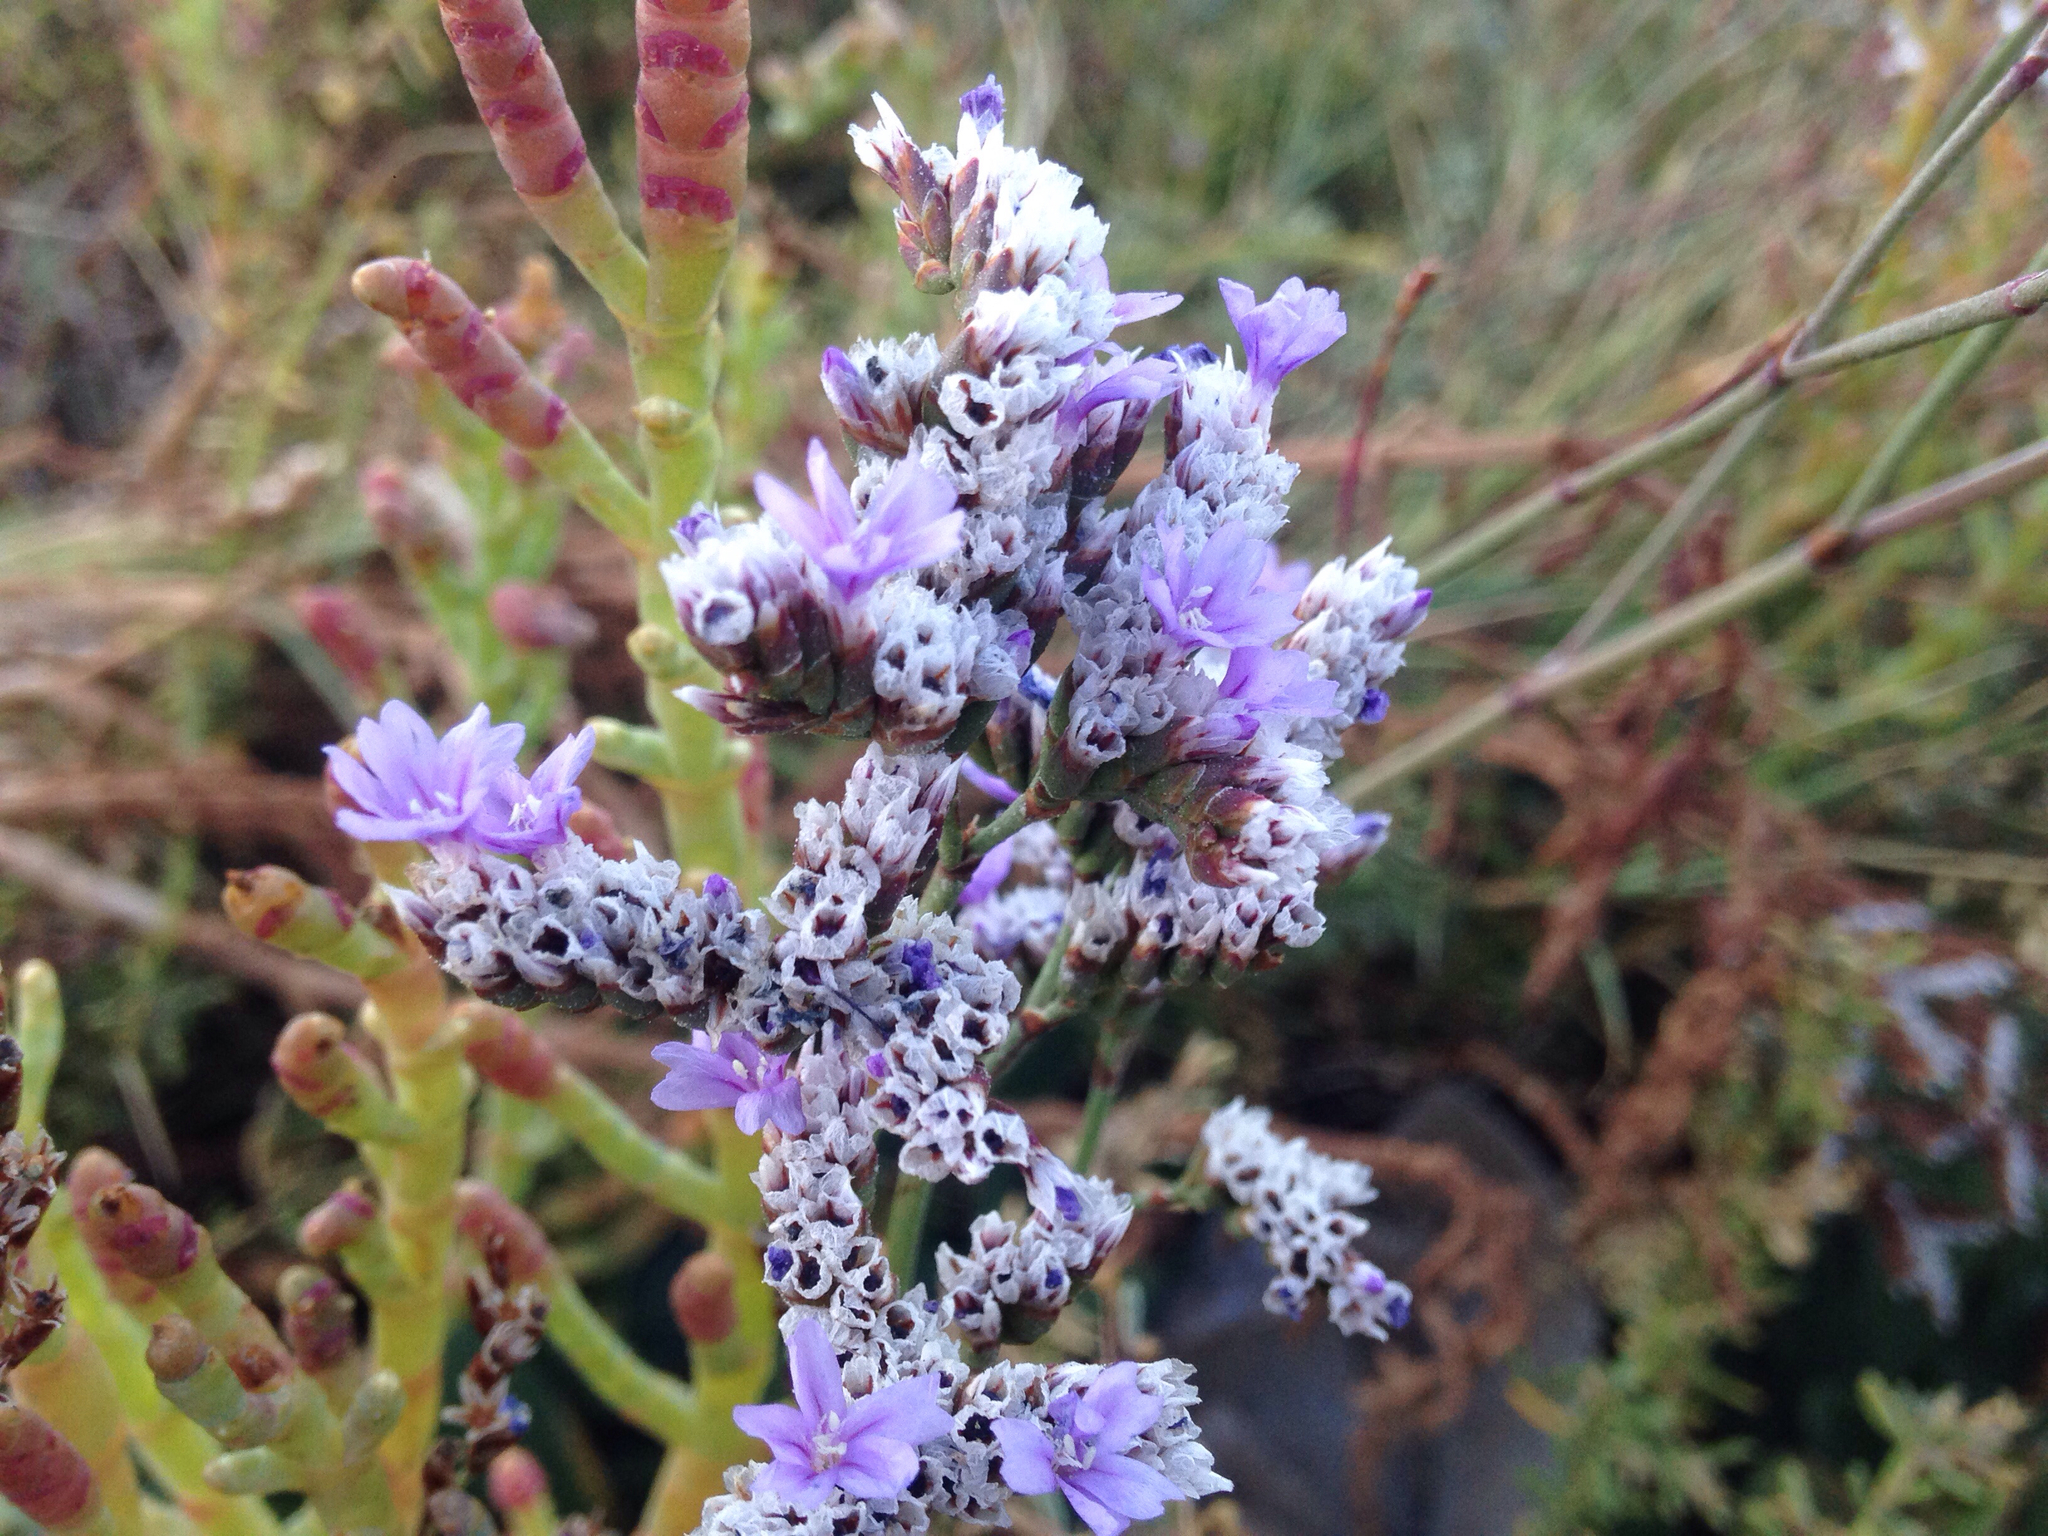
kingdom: Plantae
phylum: Tracheophyta
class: Magnoliopsida
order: Caryophyllales
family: Plumbaginaceae
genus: Limonium
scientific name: Limonium californicum
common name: Marsh-rosemary
